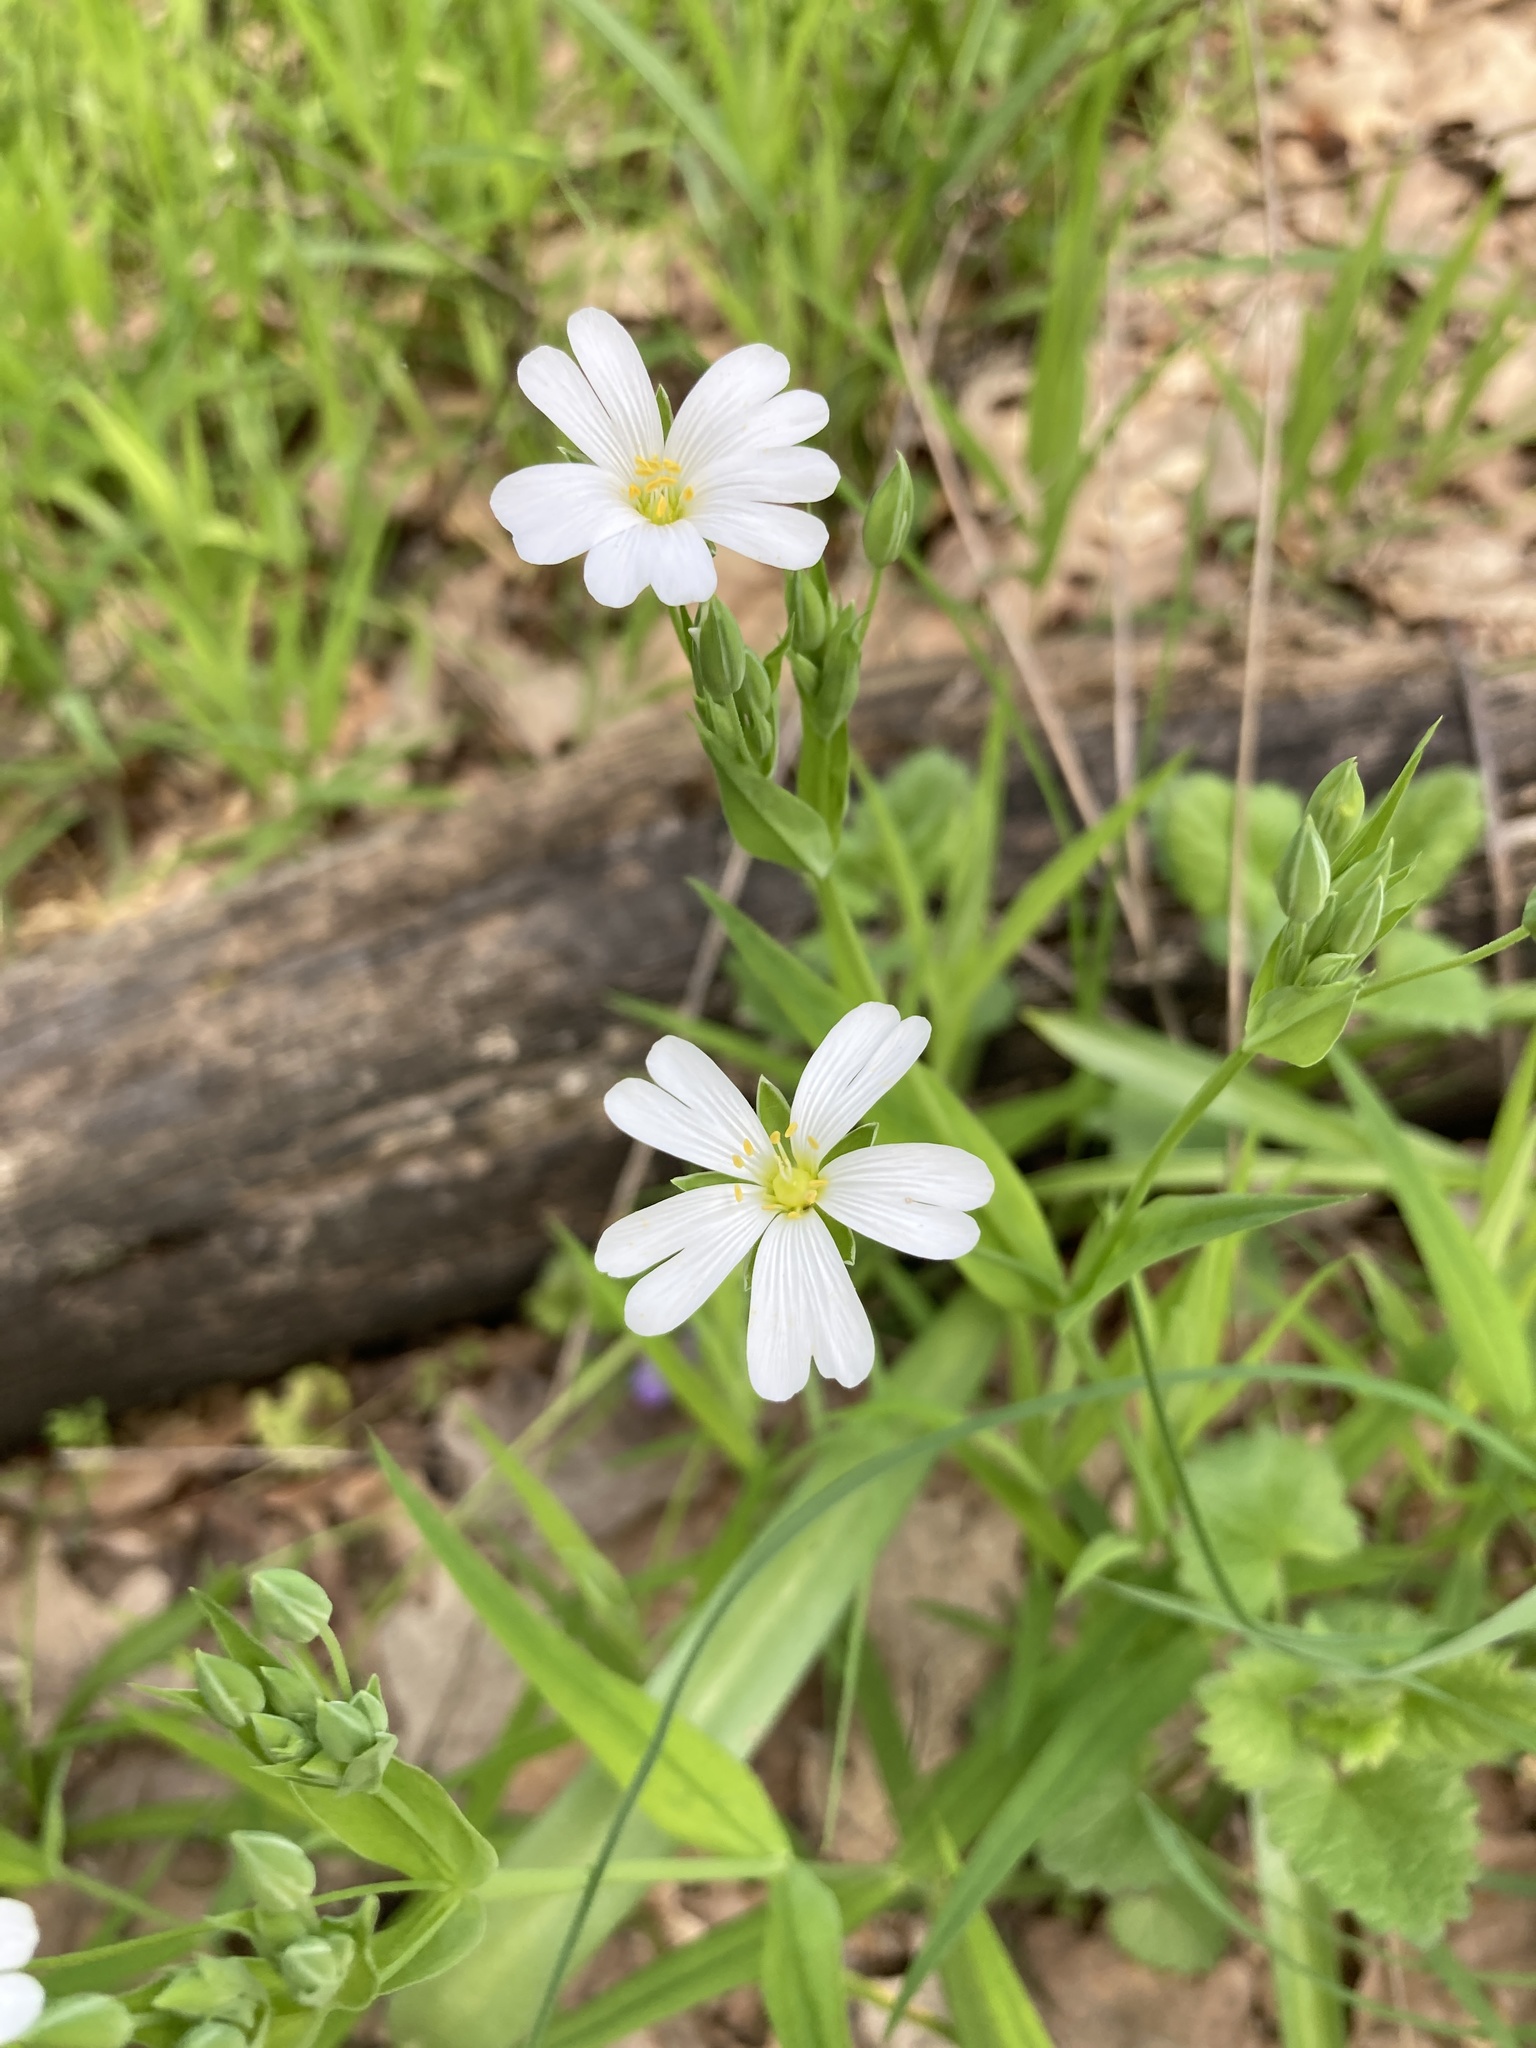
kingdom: Plantae
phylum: Tracheophyta
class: Magnoliopsida
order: Caryophyllales
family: Caryophyllaceae
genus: Rabelera
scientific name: Rabelera holostea
